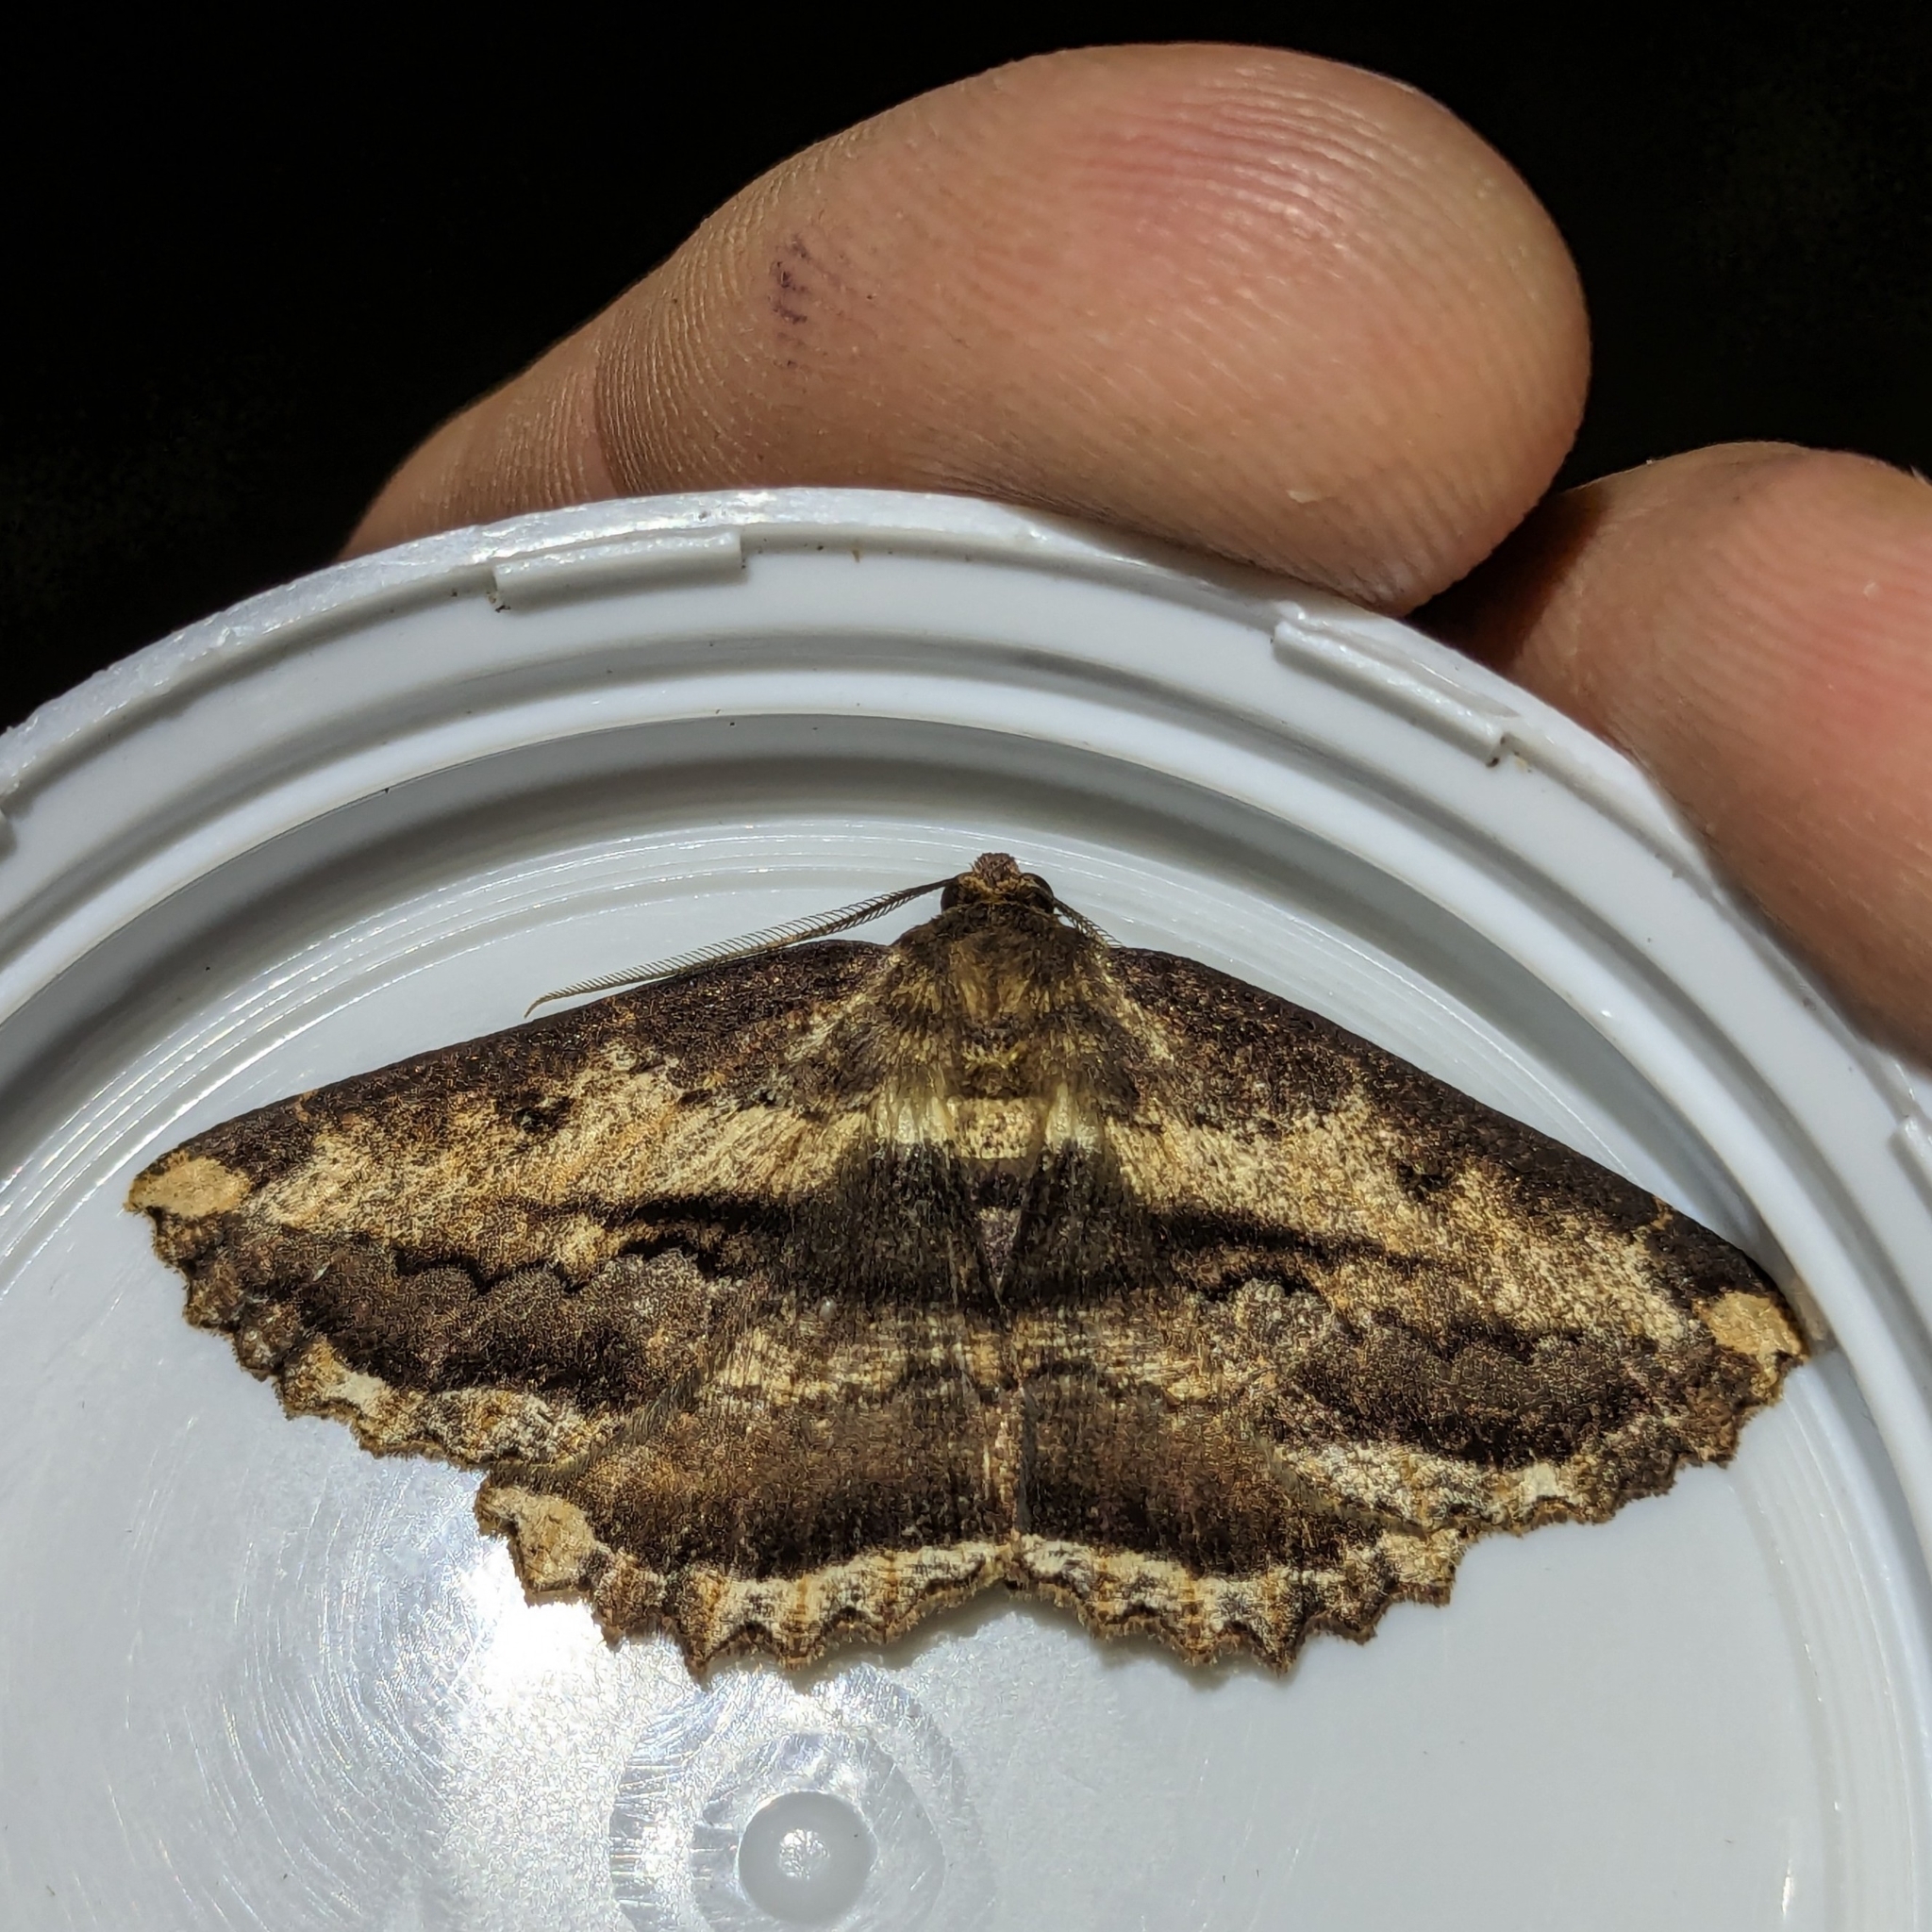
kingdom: Animalia
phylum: Arthropoda
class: Insecta
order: Lepidoptera
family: Geometridae
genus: Gellonia
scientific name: Gellonia dejectaria
